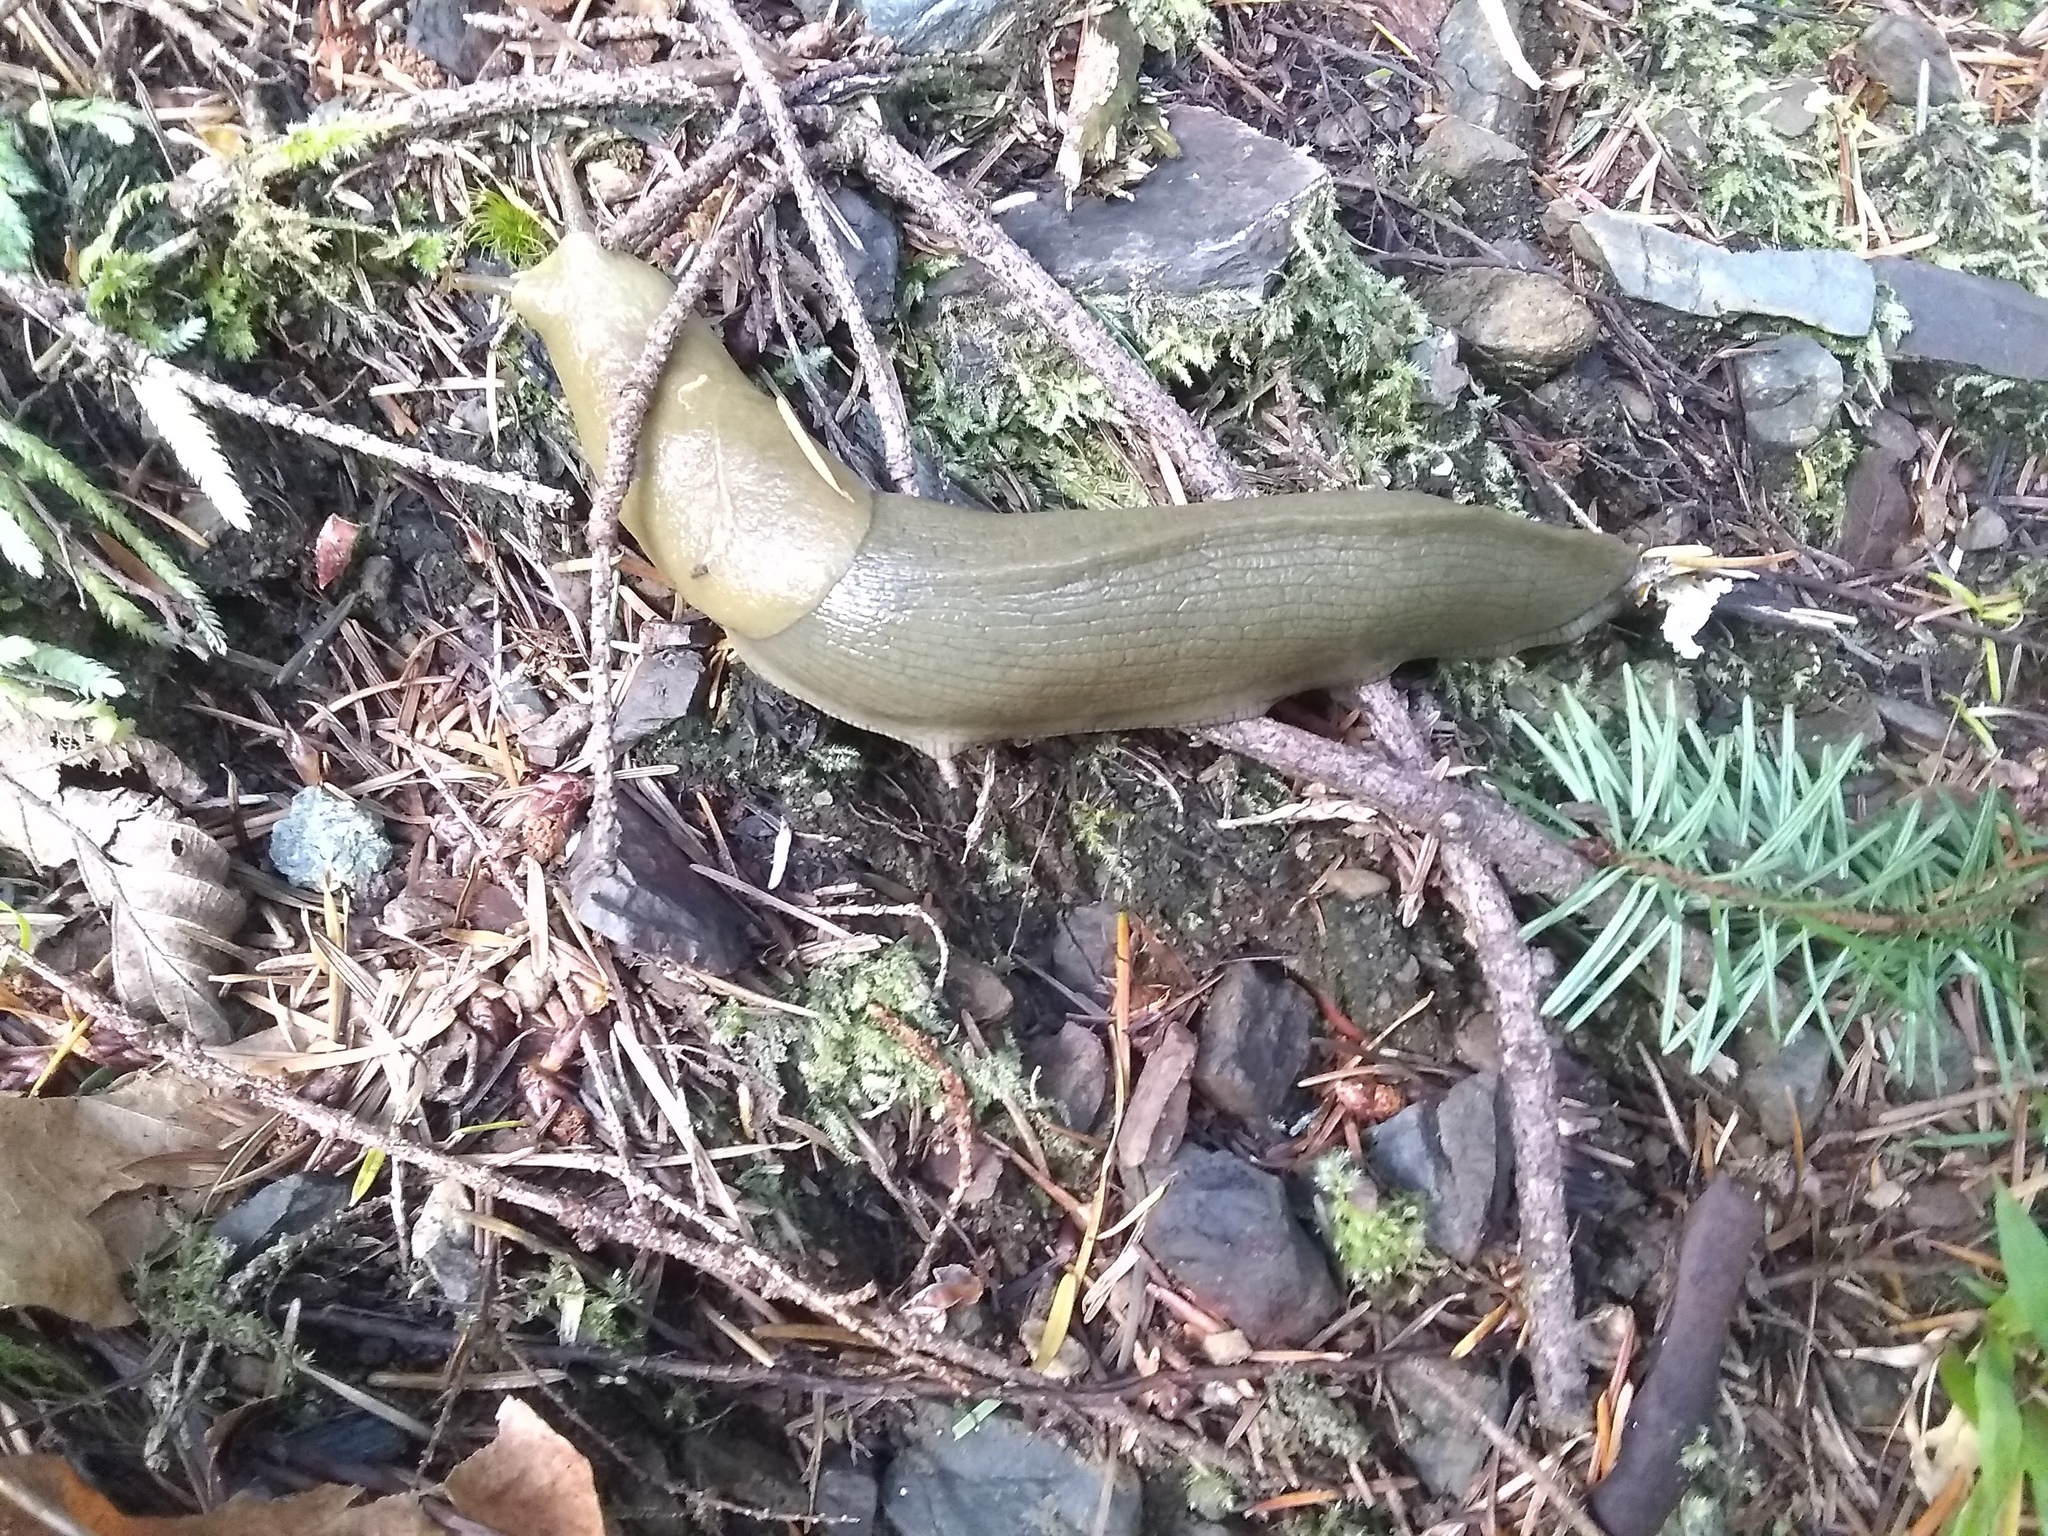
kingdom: Animalia
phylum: Mollusca
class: Gastropoda
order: Stylommatophora
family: Ariolimacidae
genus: Ariolimax
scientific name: Ariolimax columbianus
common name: Pacific banana slug
